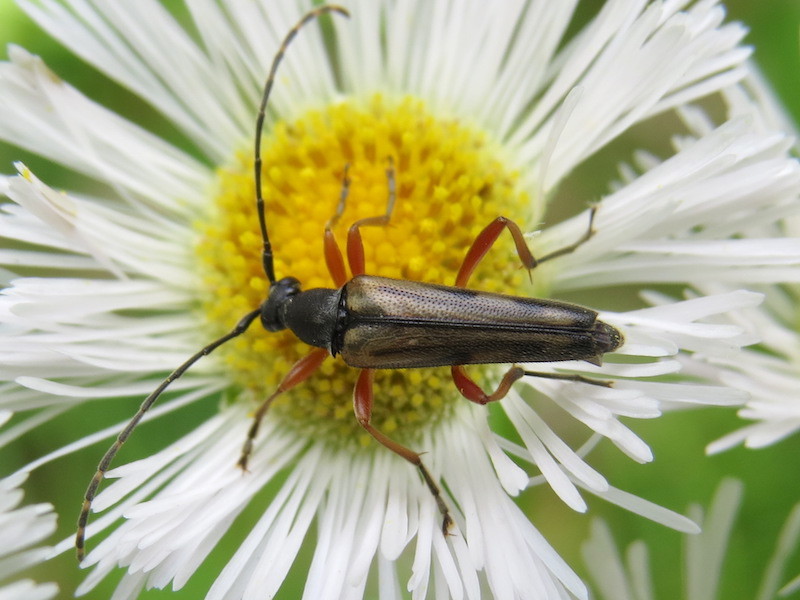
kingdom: Animalia
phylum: Arthropoda
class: Insecta
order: Coleoptera
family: Cerambycidae
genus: Analeptura
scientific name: Analeptura lineola
